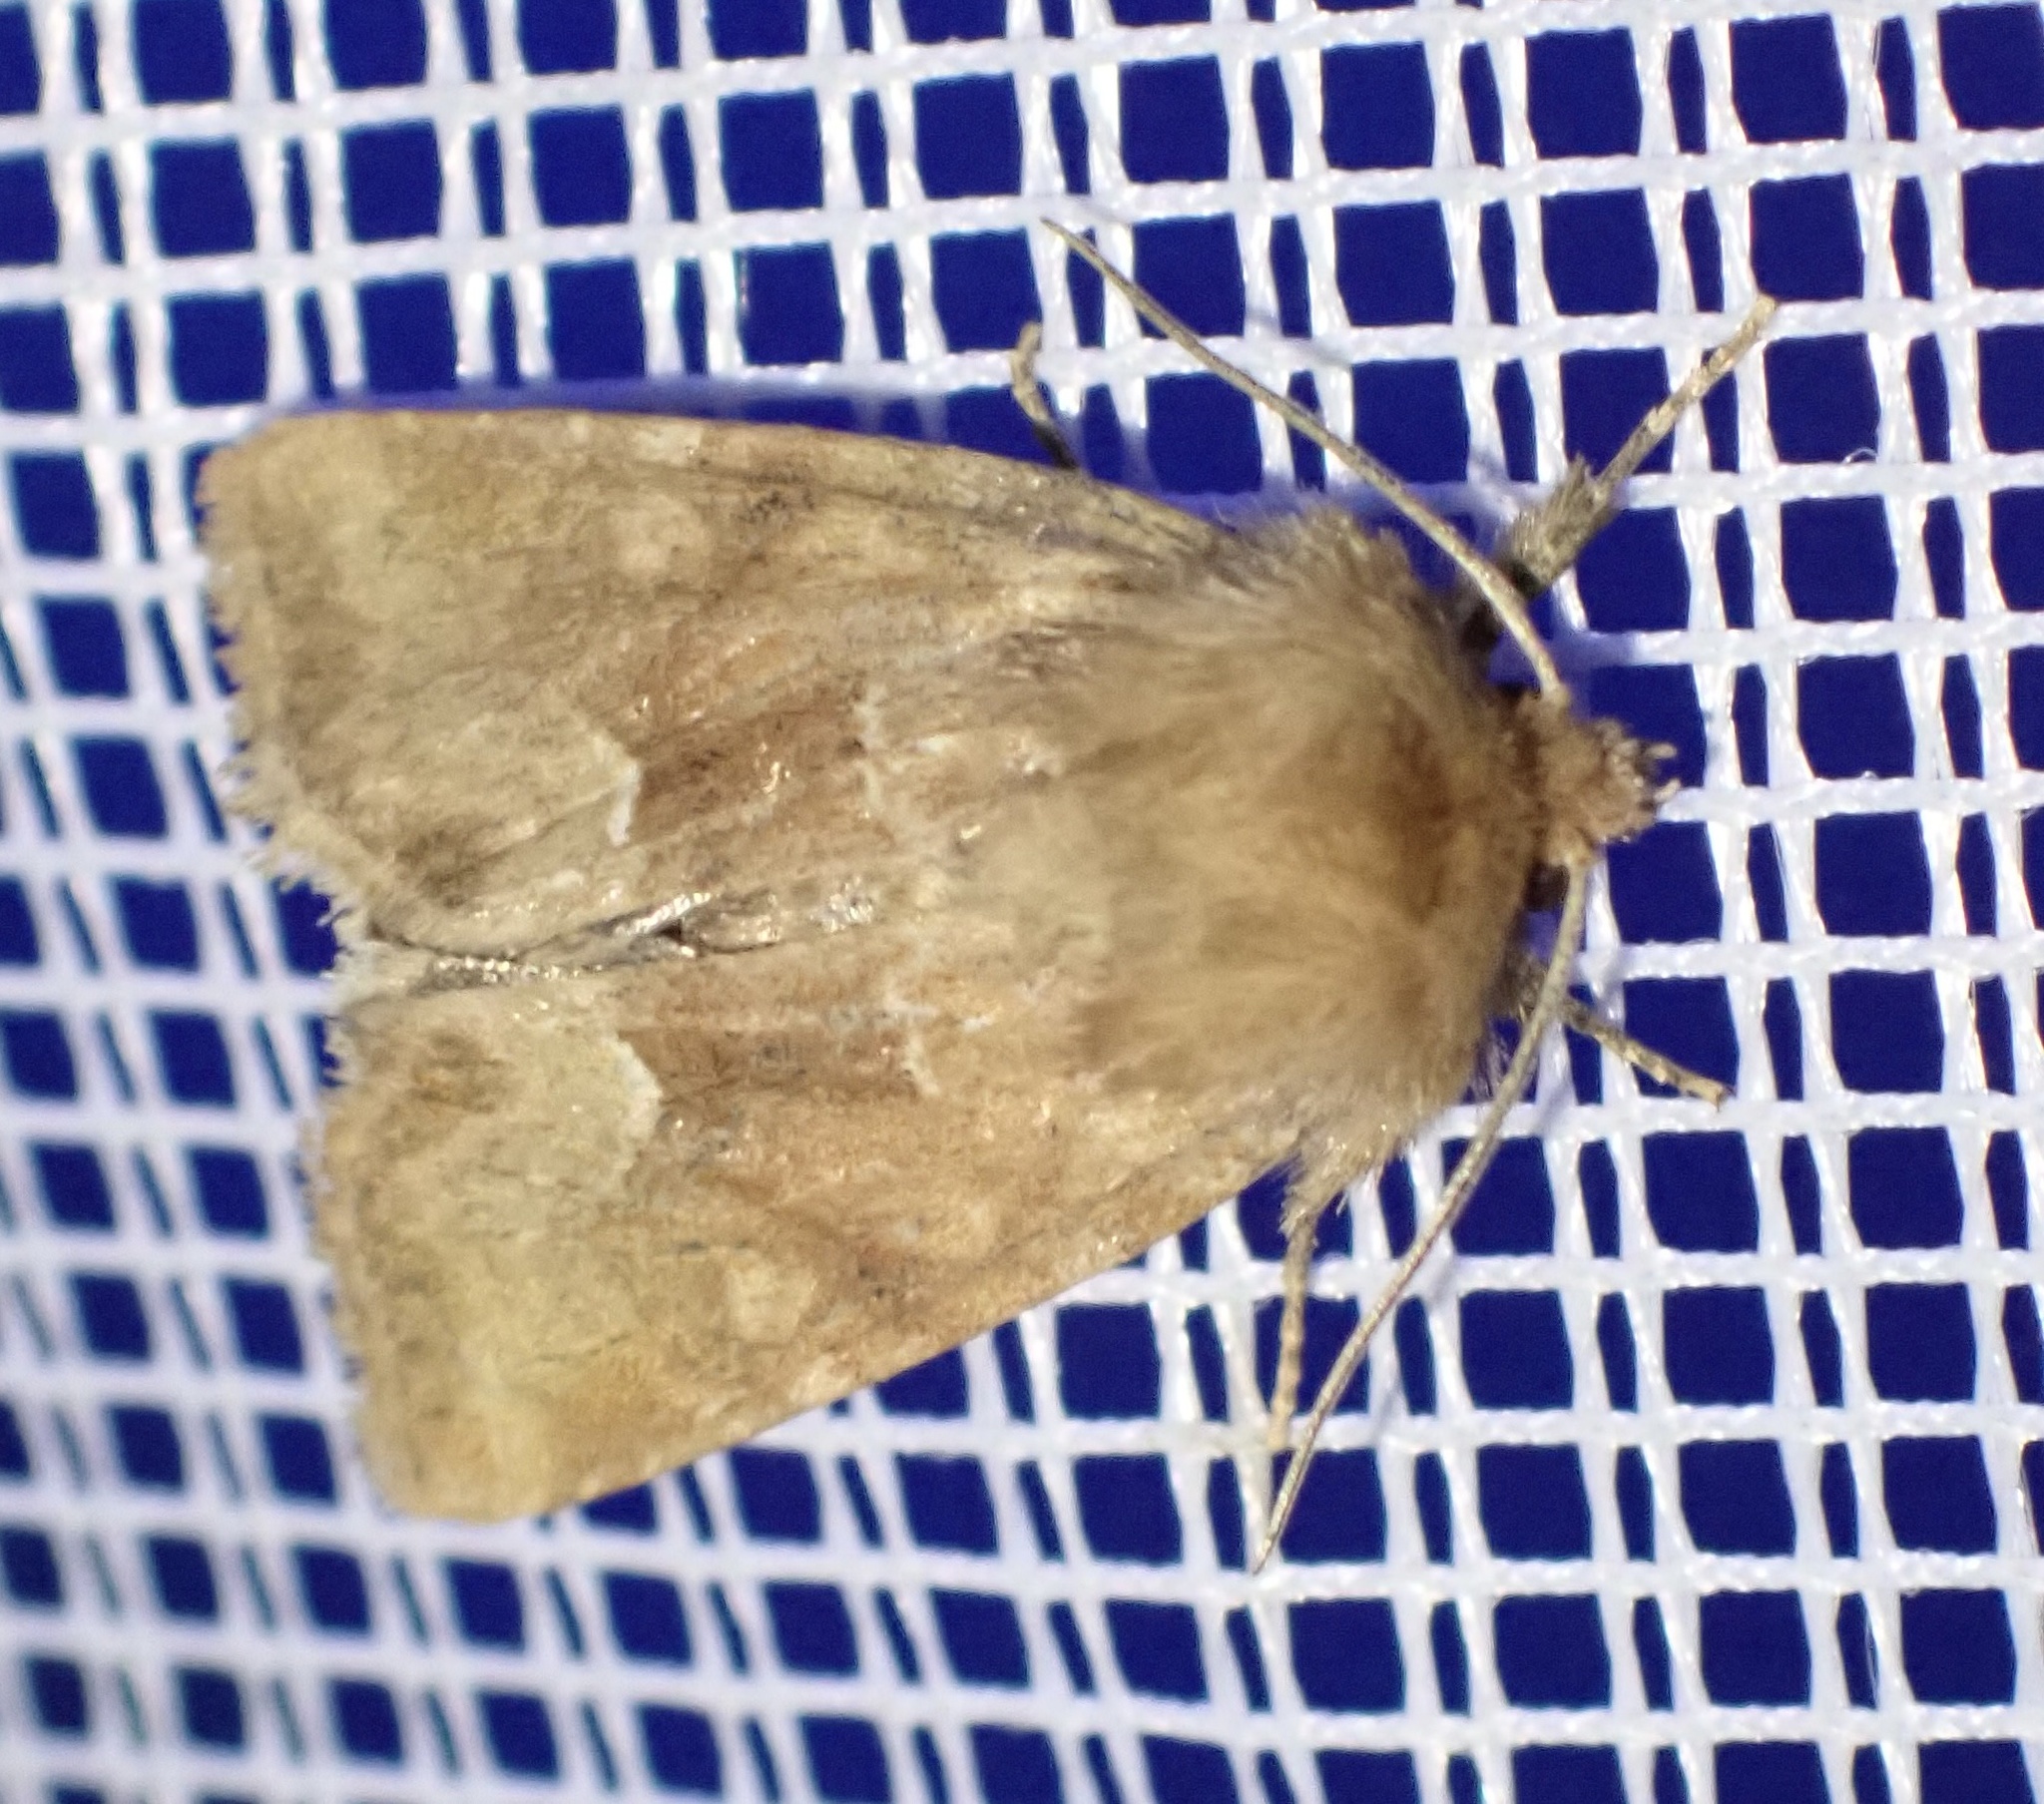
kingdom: Animalia
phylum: Arthropoda
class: Insecta
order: Lepidoptera
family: Noctuidae
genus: Oligia
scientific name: Oligia fasciuncula
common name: Middle-barred minor
